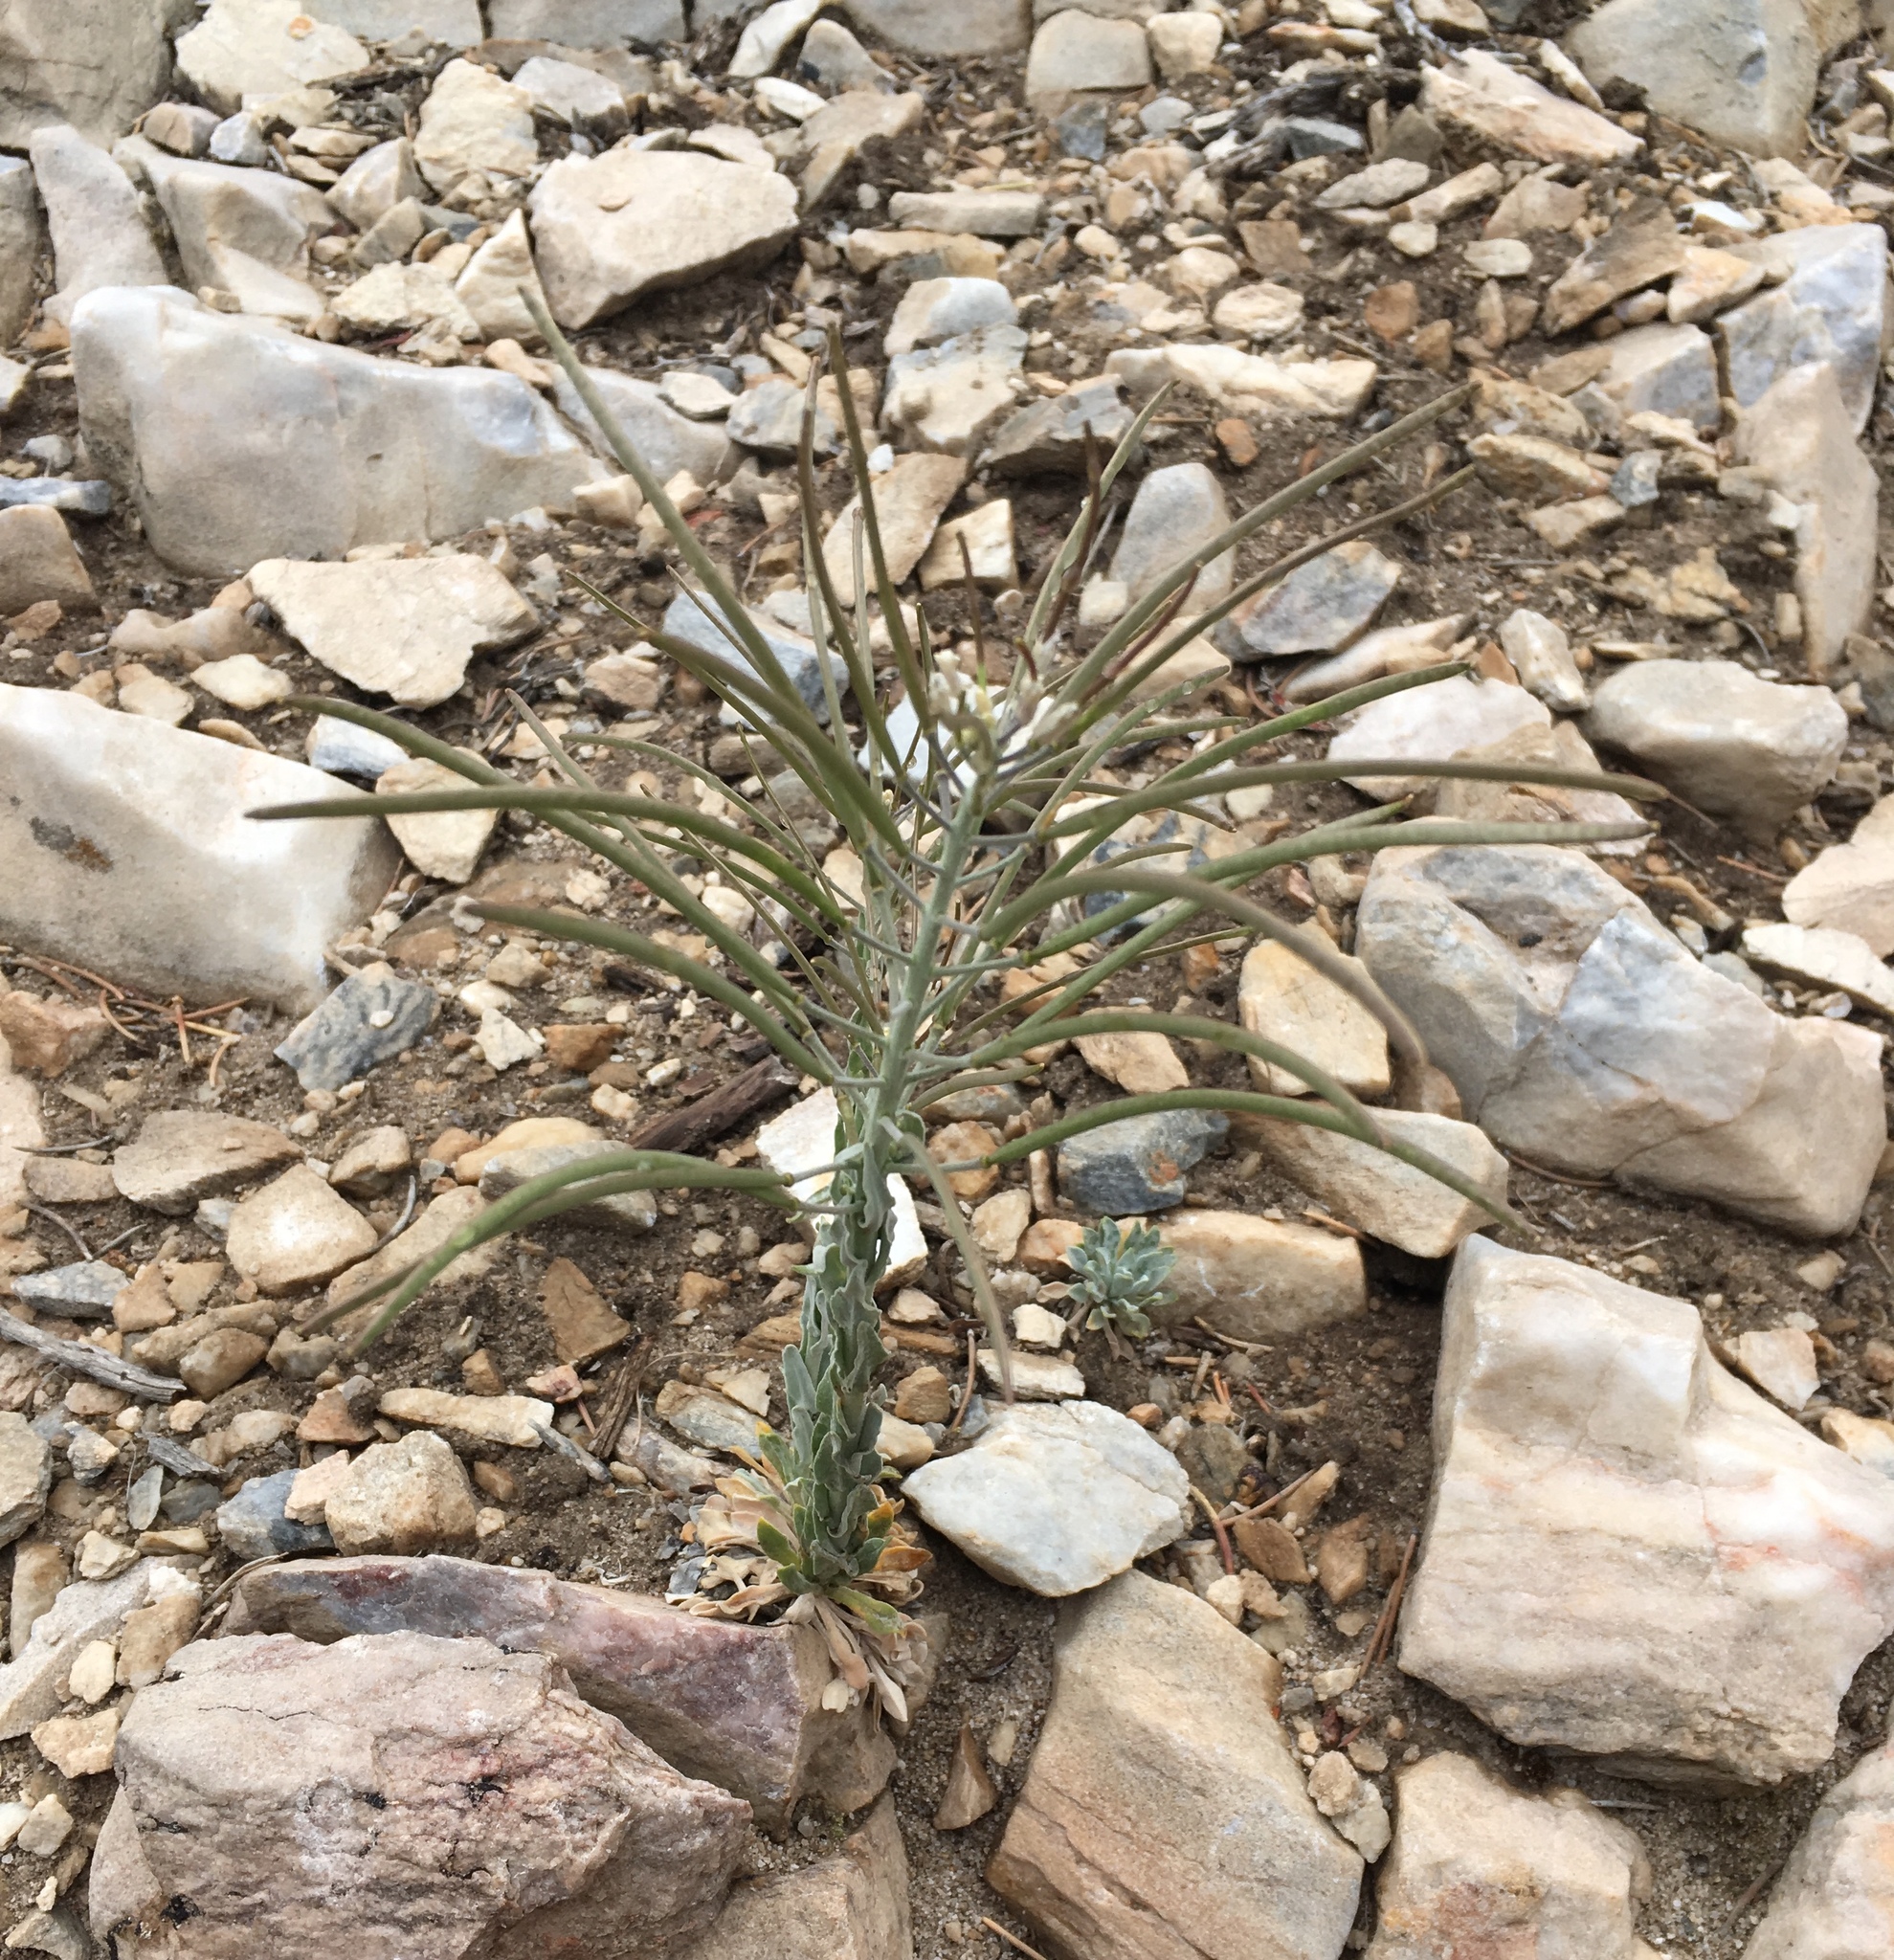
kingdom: Plantae
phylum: Tracheophyta
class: Magnoliopsida
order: Brassicales
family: Brassicaceae
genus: Boechera
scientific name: Boechera shockleyi
